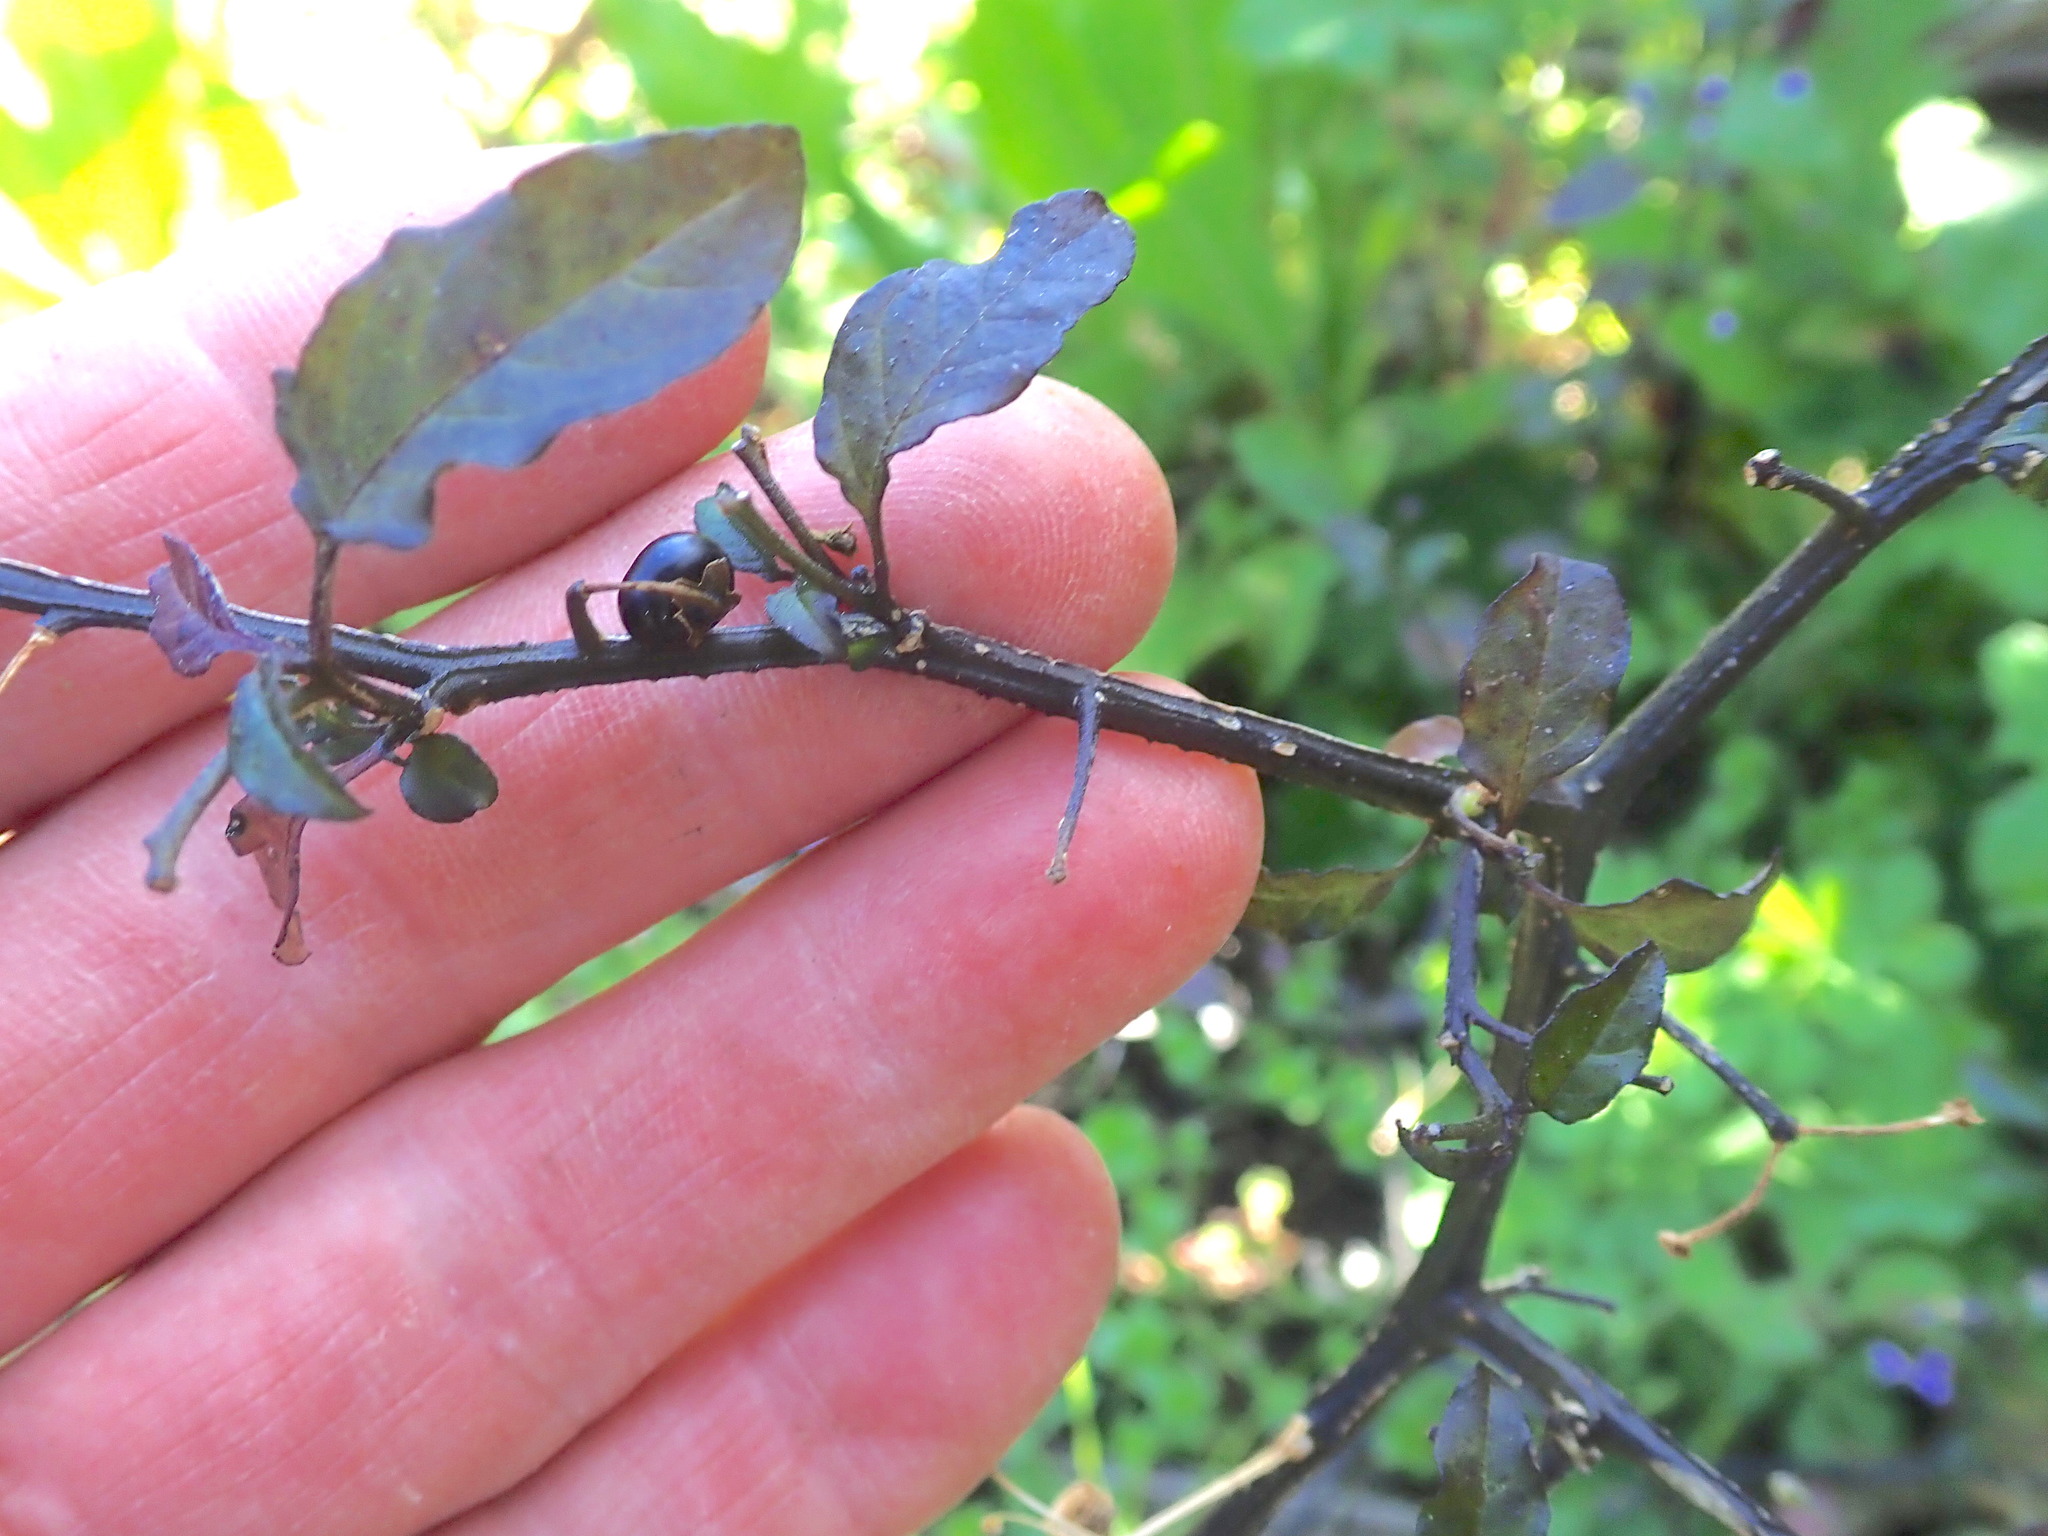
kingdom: Plantae
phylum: Tracheophyta
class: Magnoliopsida
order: Solanales
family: Solanaceae
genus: Solanum
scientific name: Solanum opacum
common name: Green-berry nightshade
